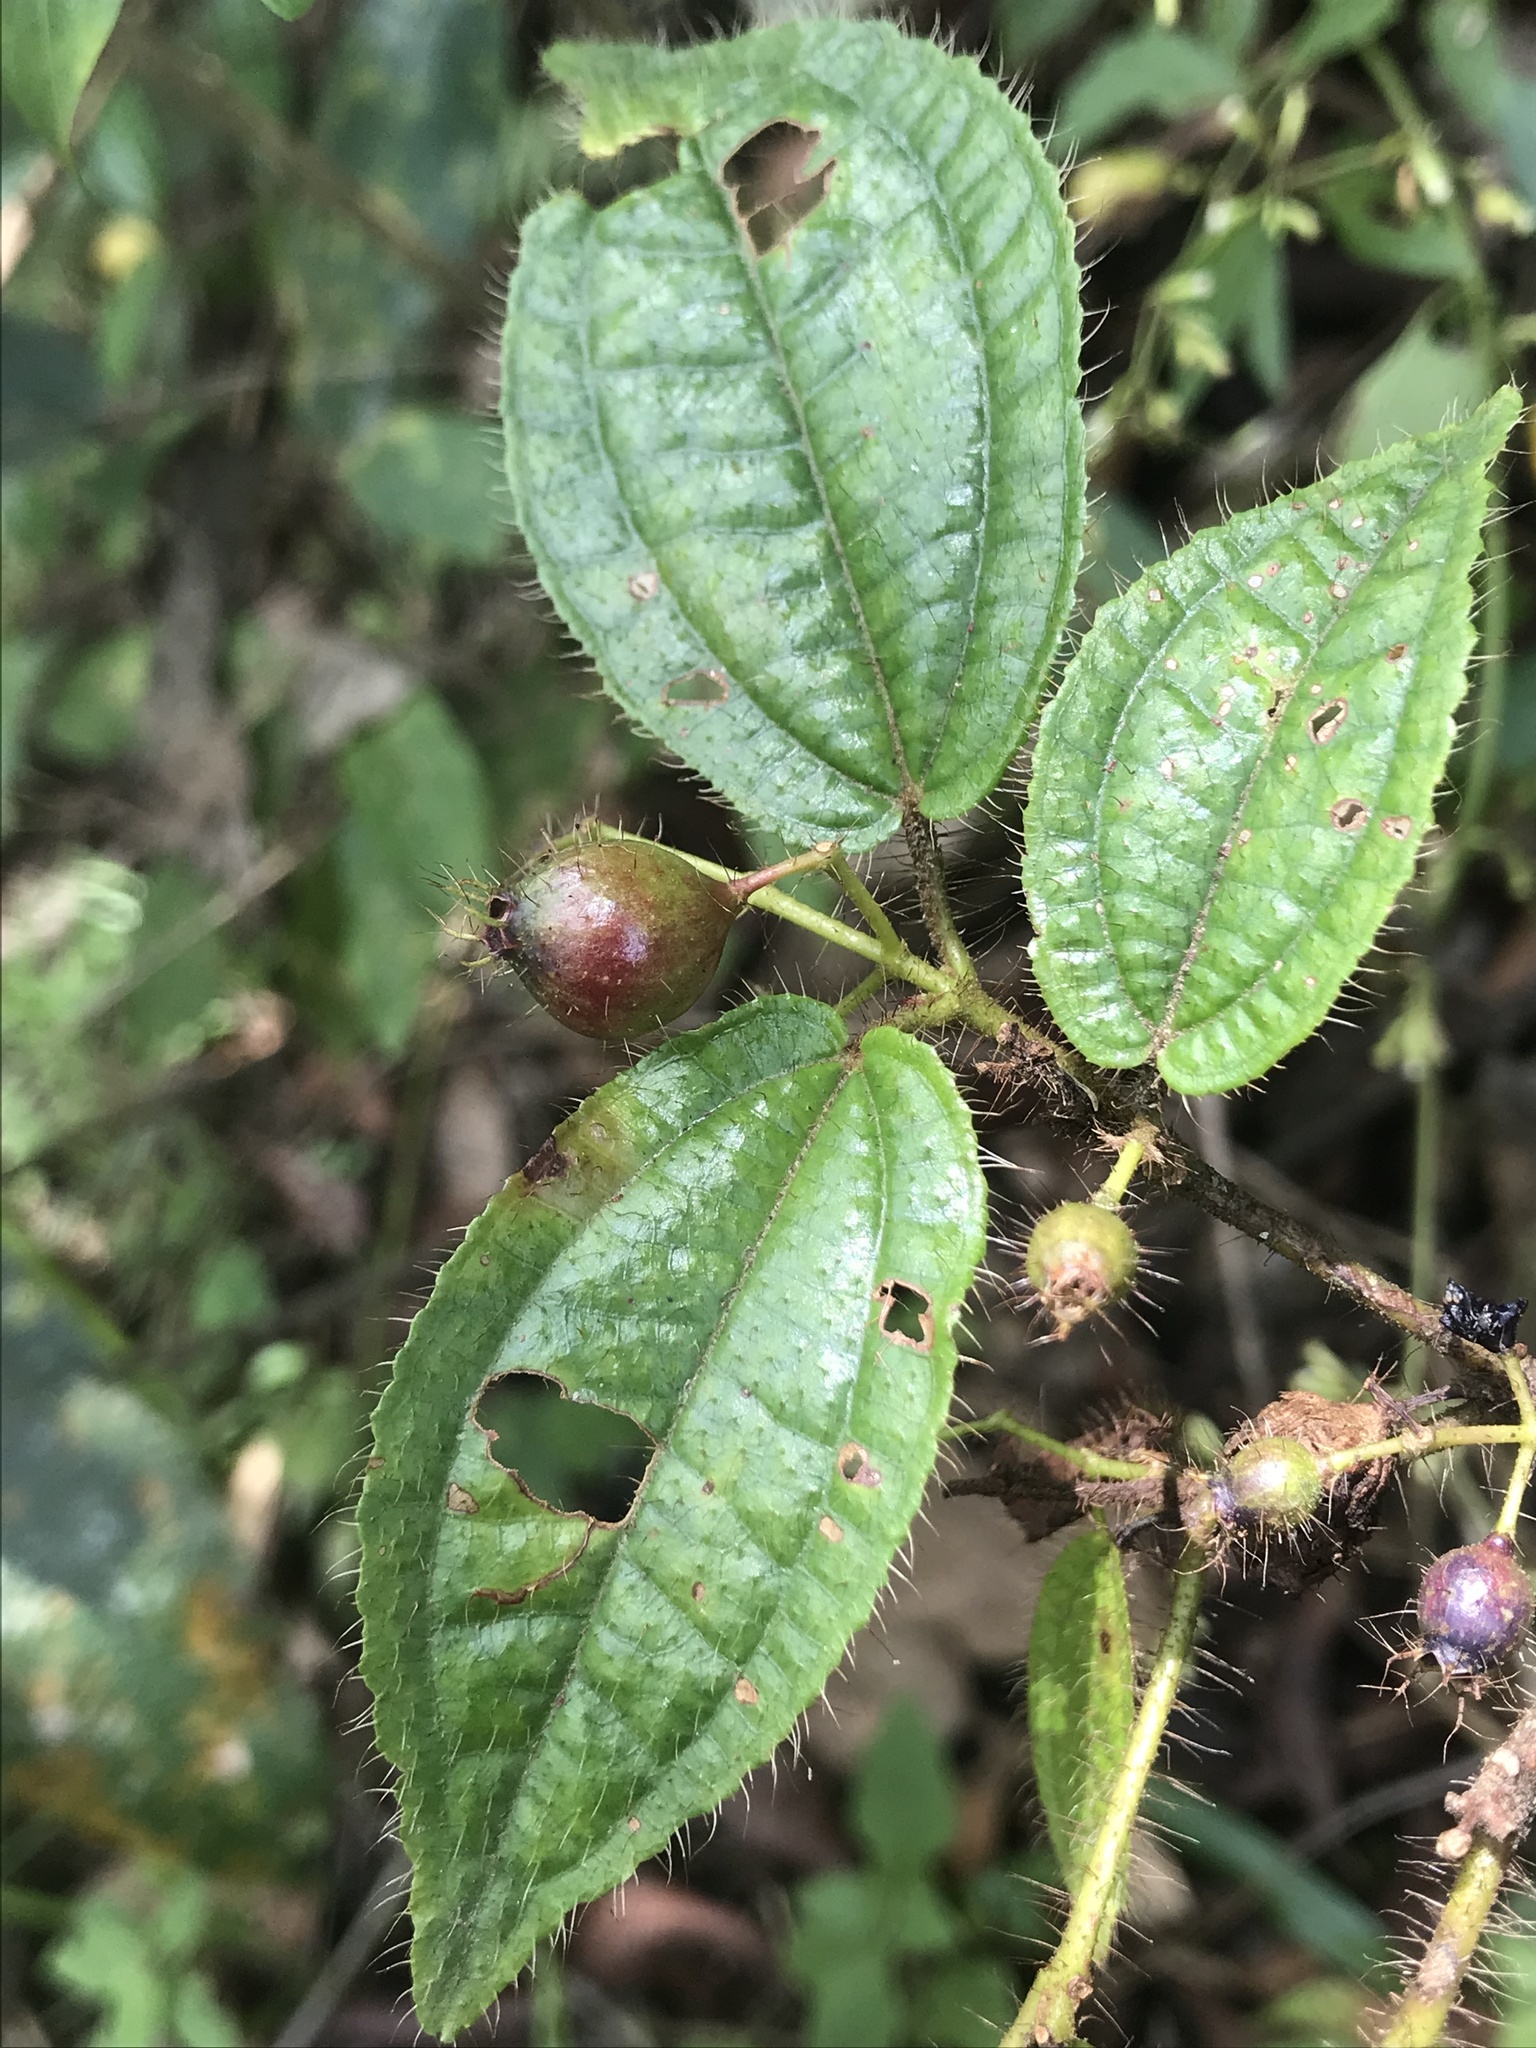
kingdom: Plantae
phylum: Tracheophyta
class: Magnoliopsida
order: Myrtales
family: Melastomataceae
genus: Miconia
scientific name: Miconia crenata
